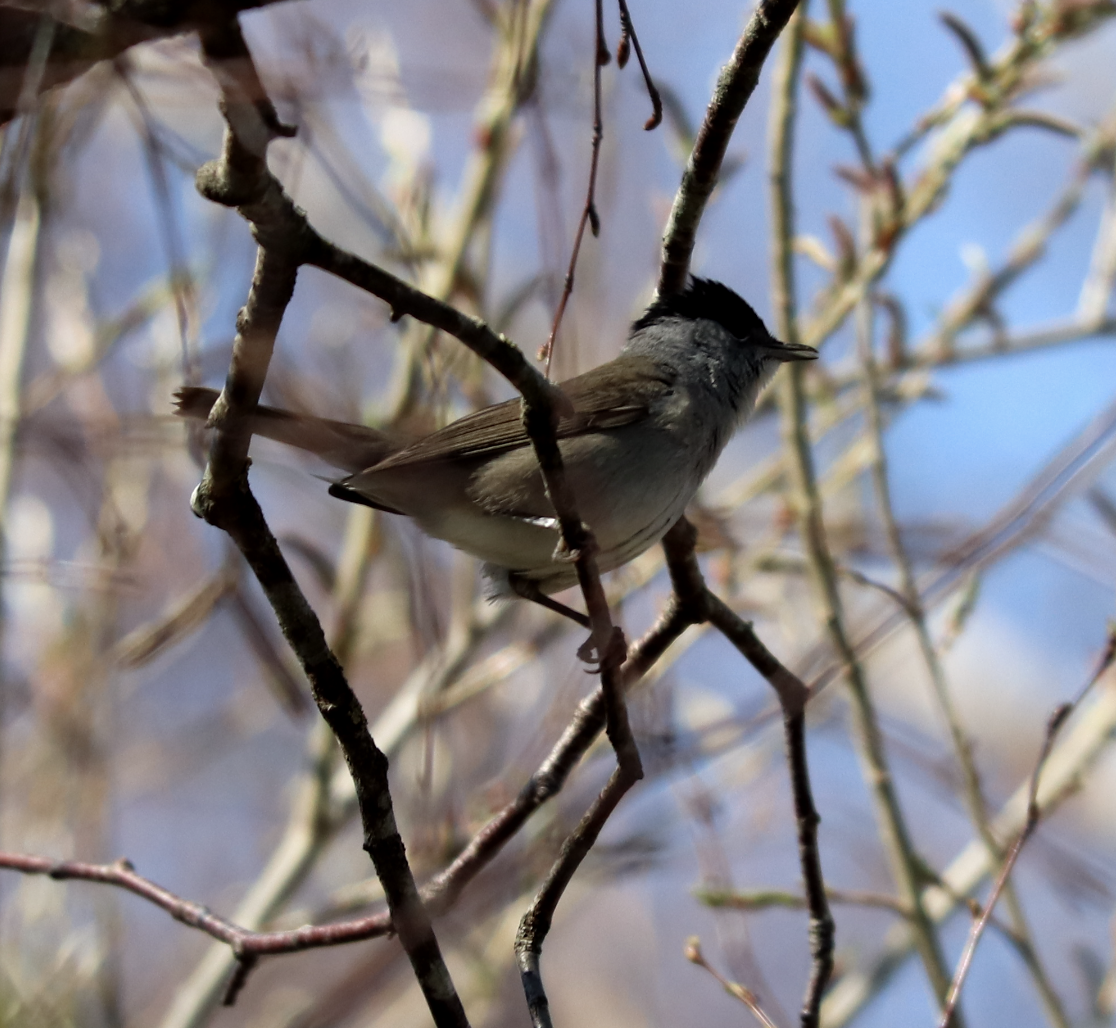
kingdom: Animalia
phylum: Chordata
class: Aves
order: Passeriformes
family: Sylviidae
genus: Sylvia
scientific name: Sylvia atricapilla
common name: Eurasian blackcap
